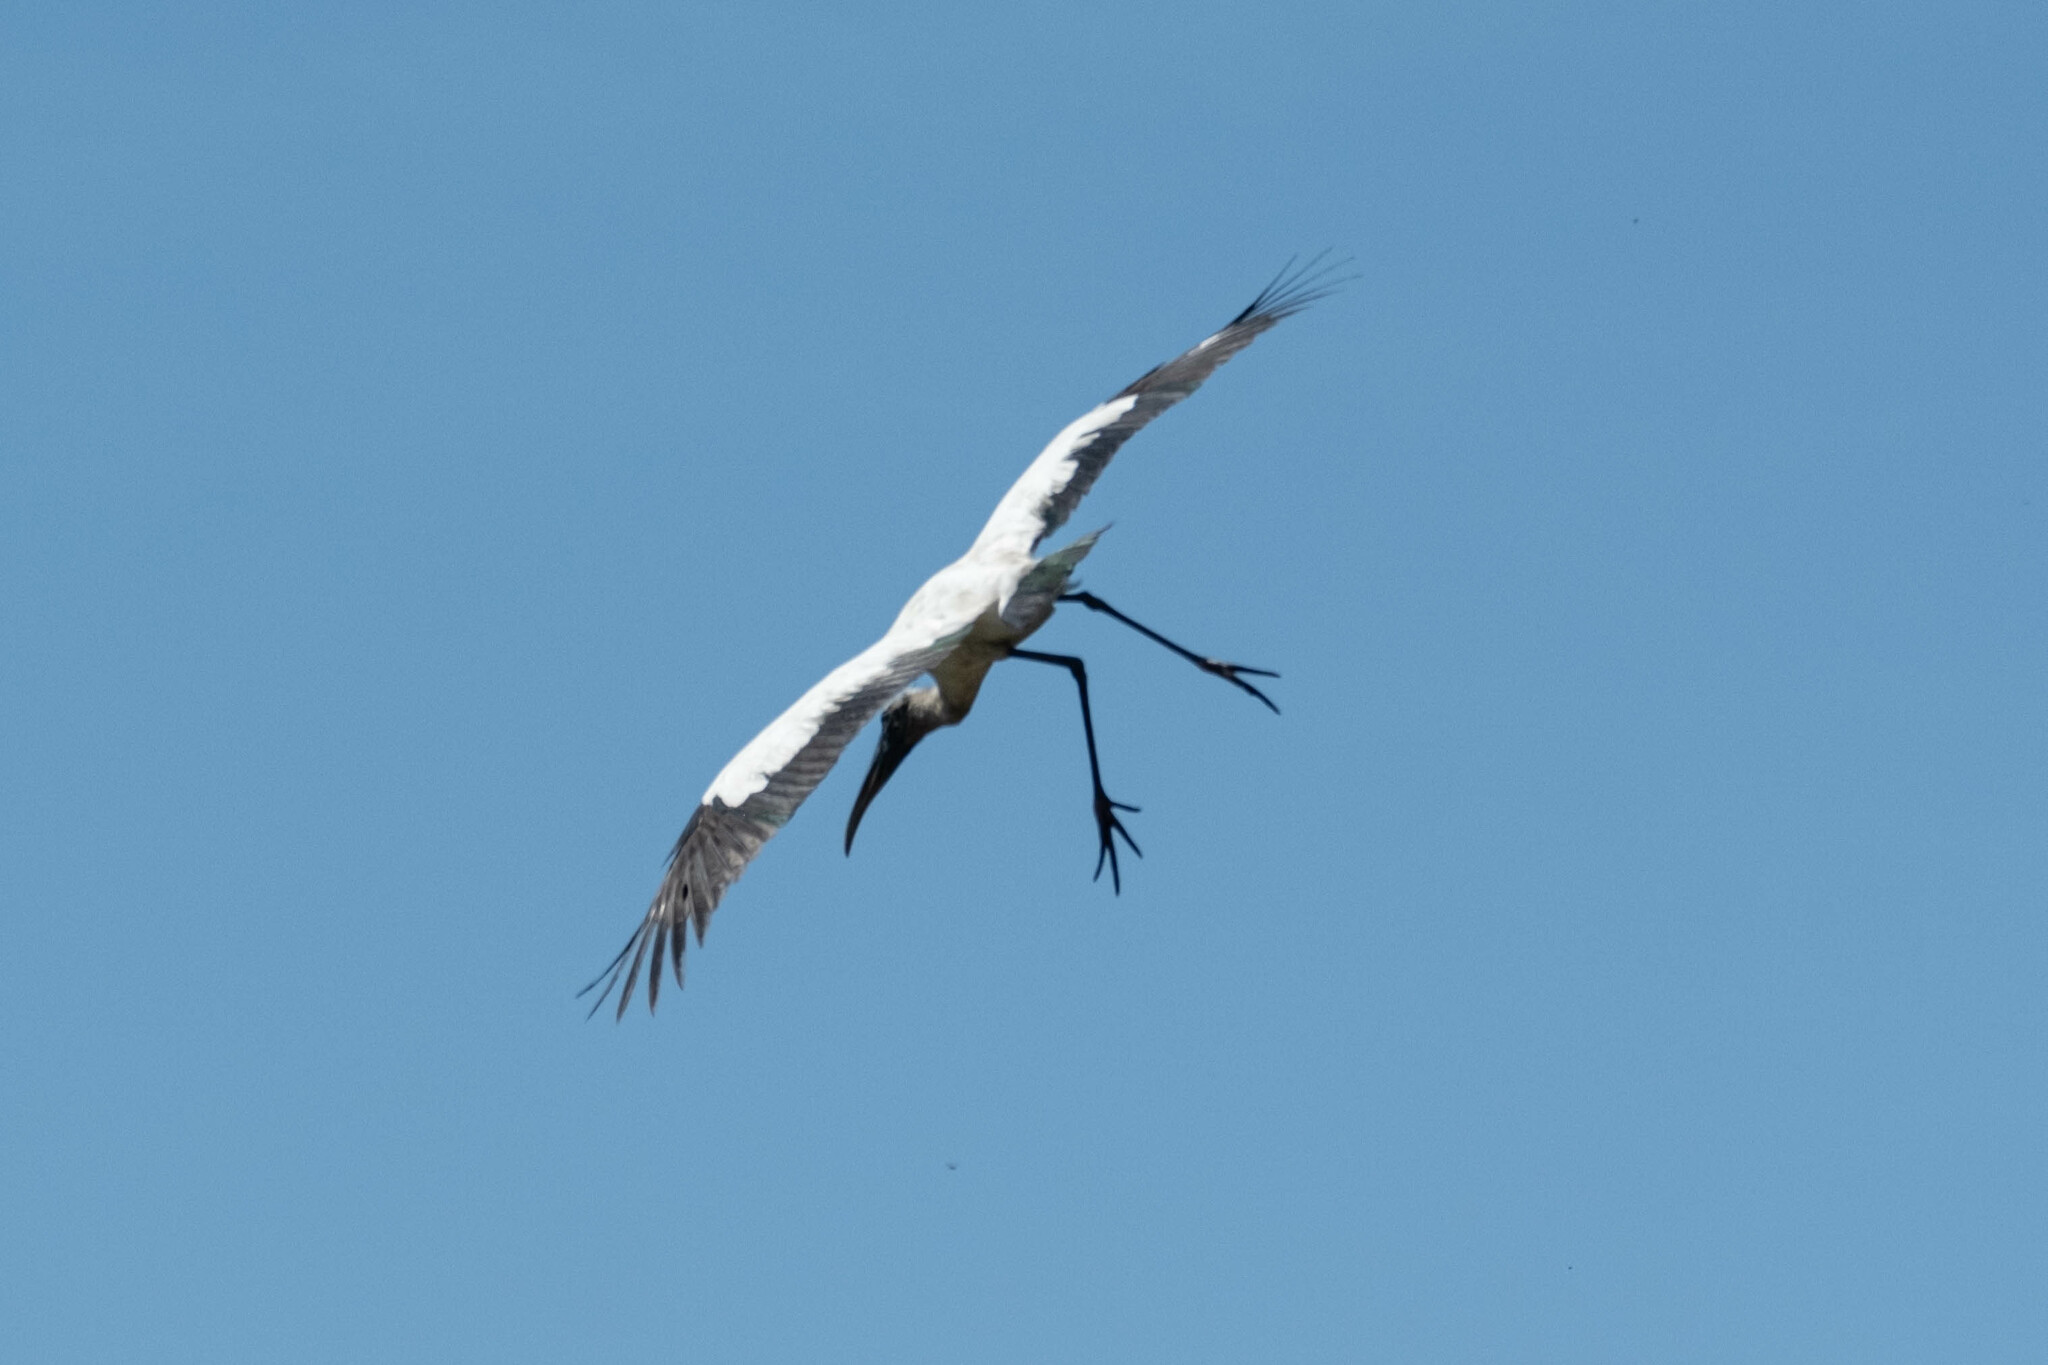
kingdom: Animalia
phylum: Chordata
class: Aves
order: Ciconiiformes
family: Ciconiidae
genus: Mycteria
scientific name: Mycteria americana
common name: Wood stork
